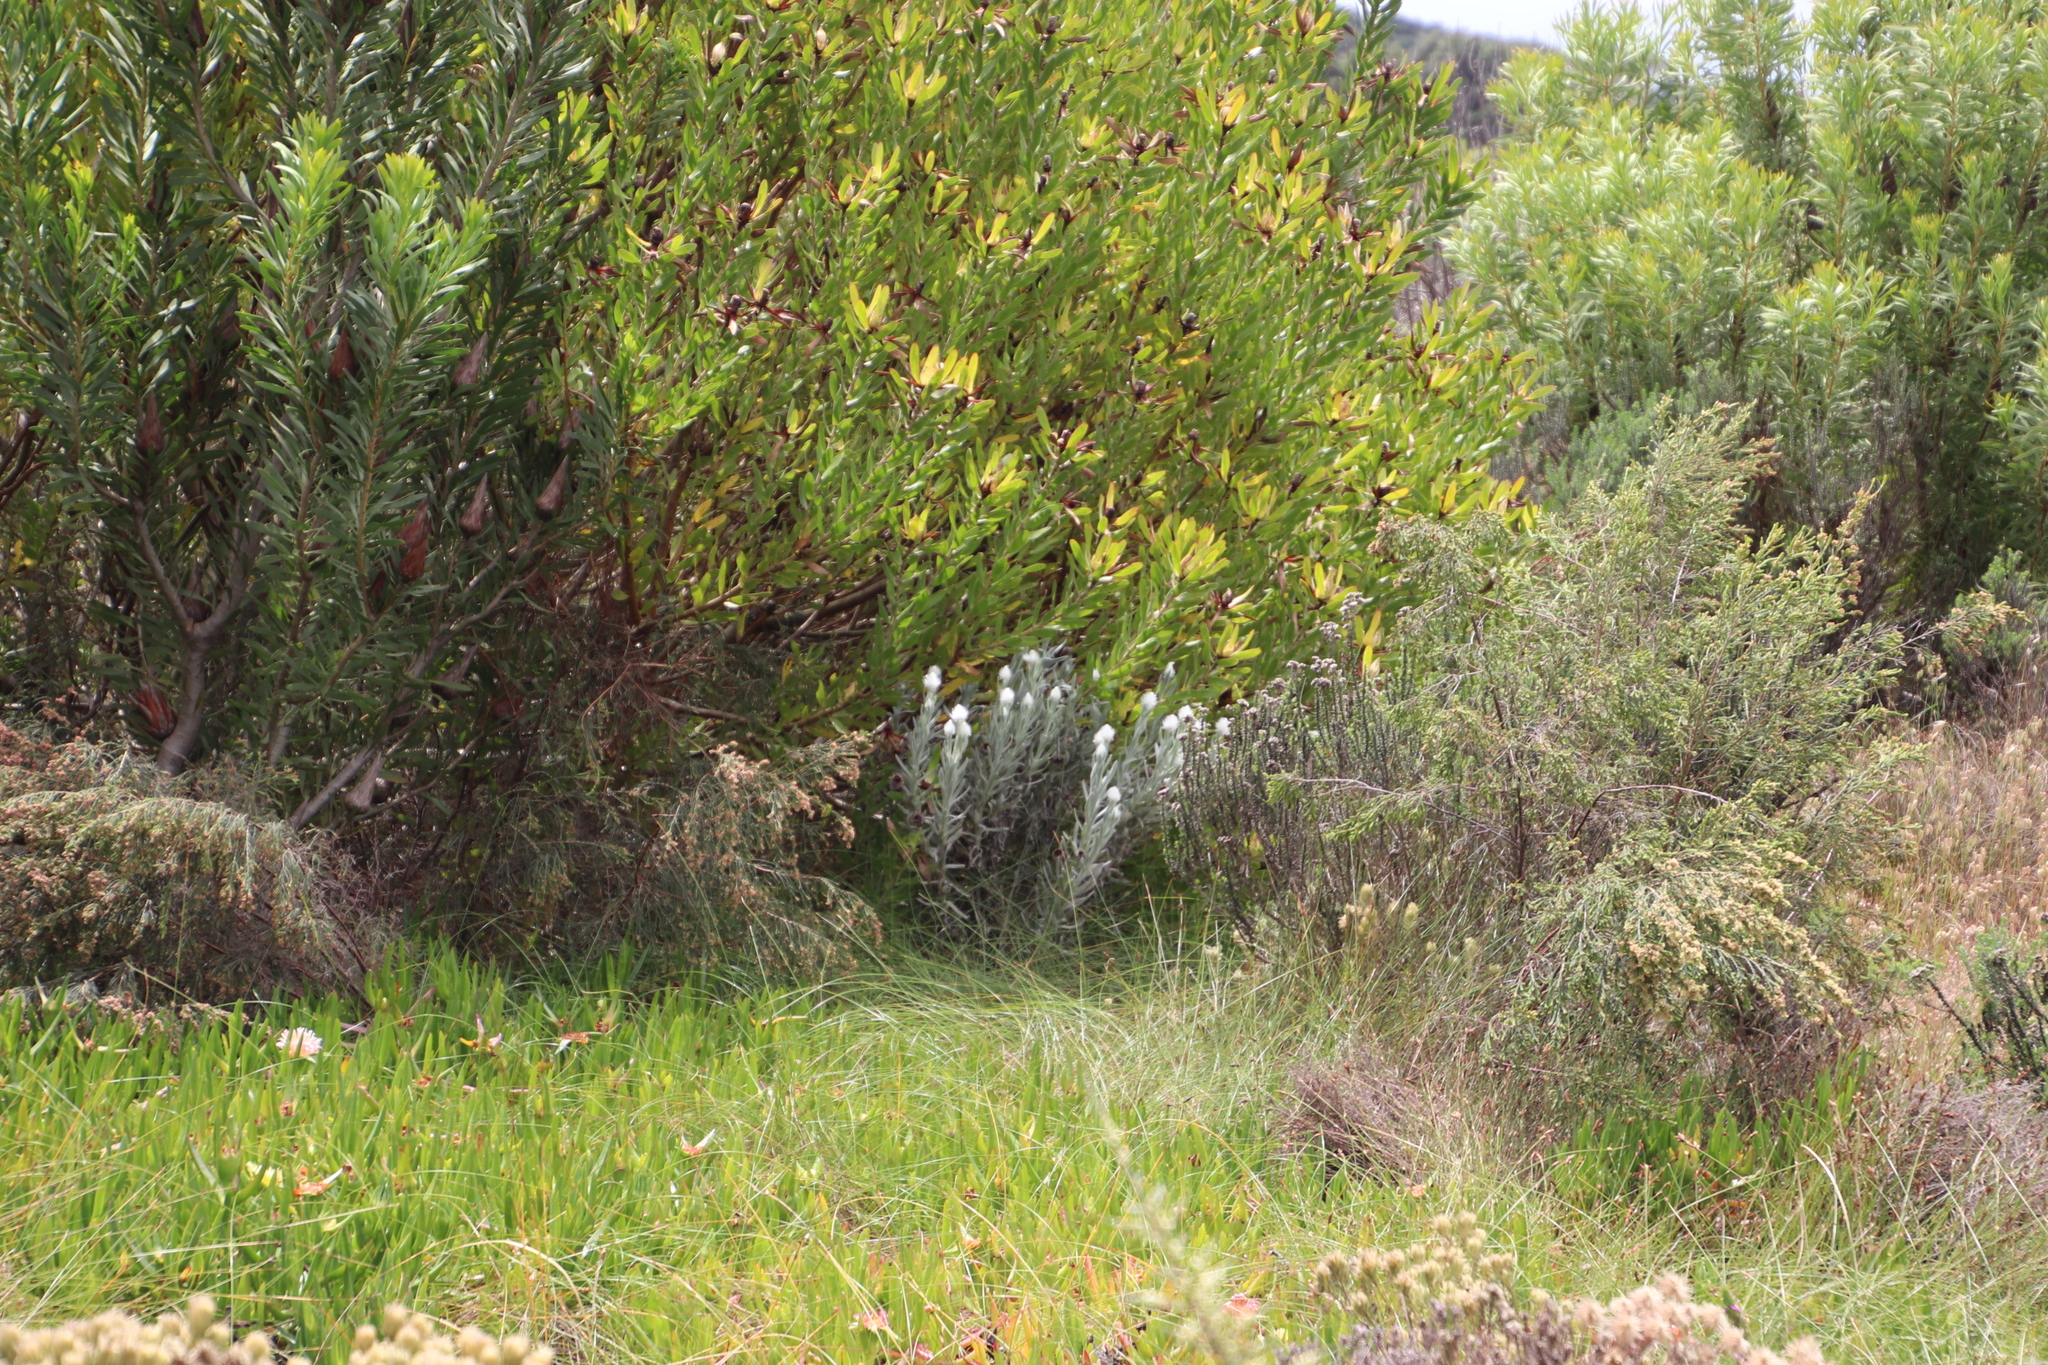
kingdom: Plantae
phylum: Tracheophyta
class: Magnoliopsida
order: Asterales
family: Asteraceae
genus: Syncarpha
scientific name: Syncarpha vestita
